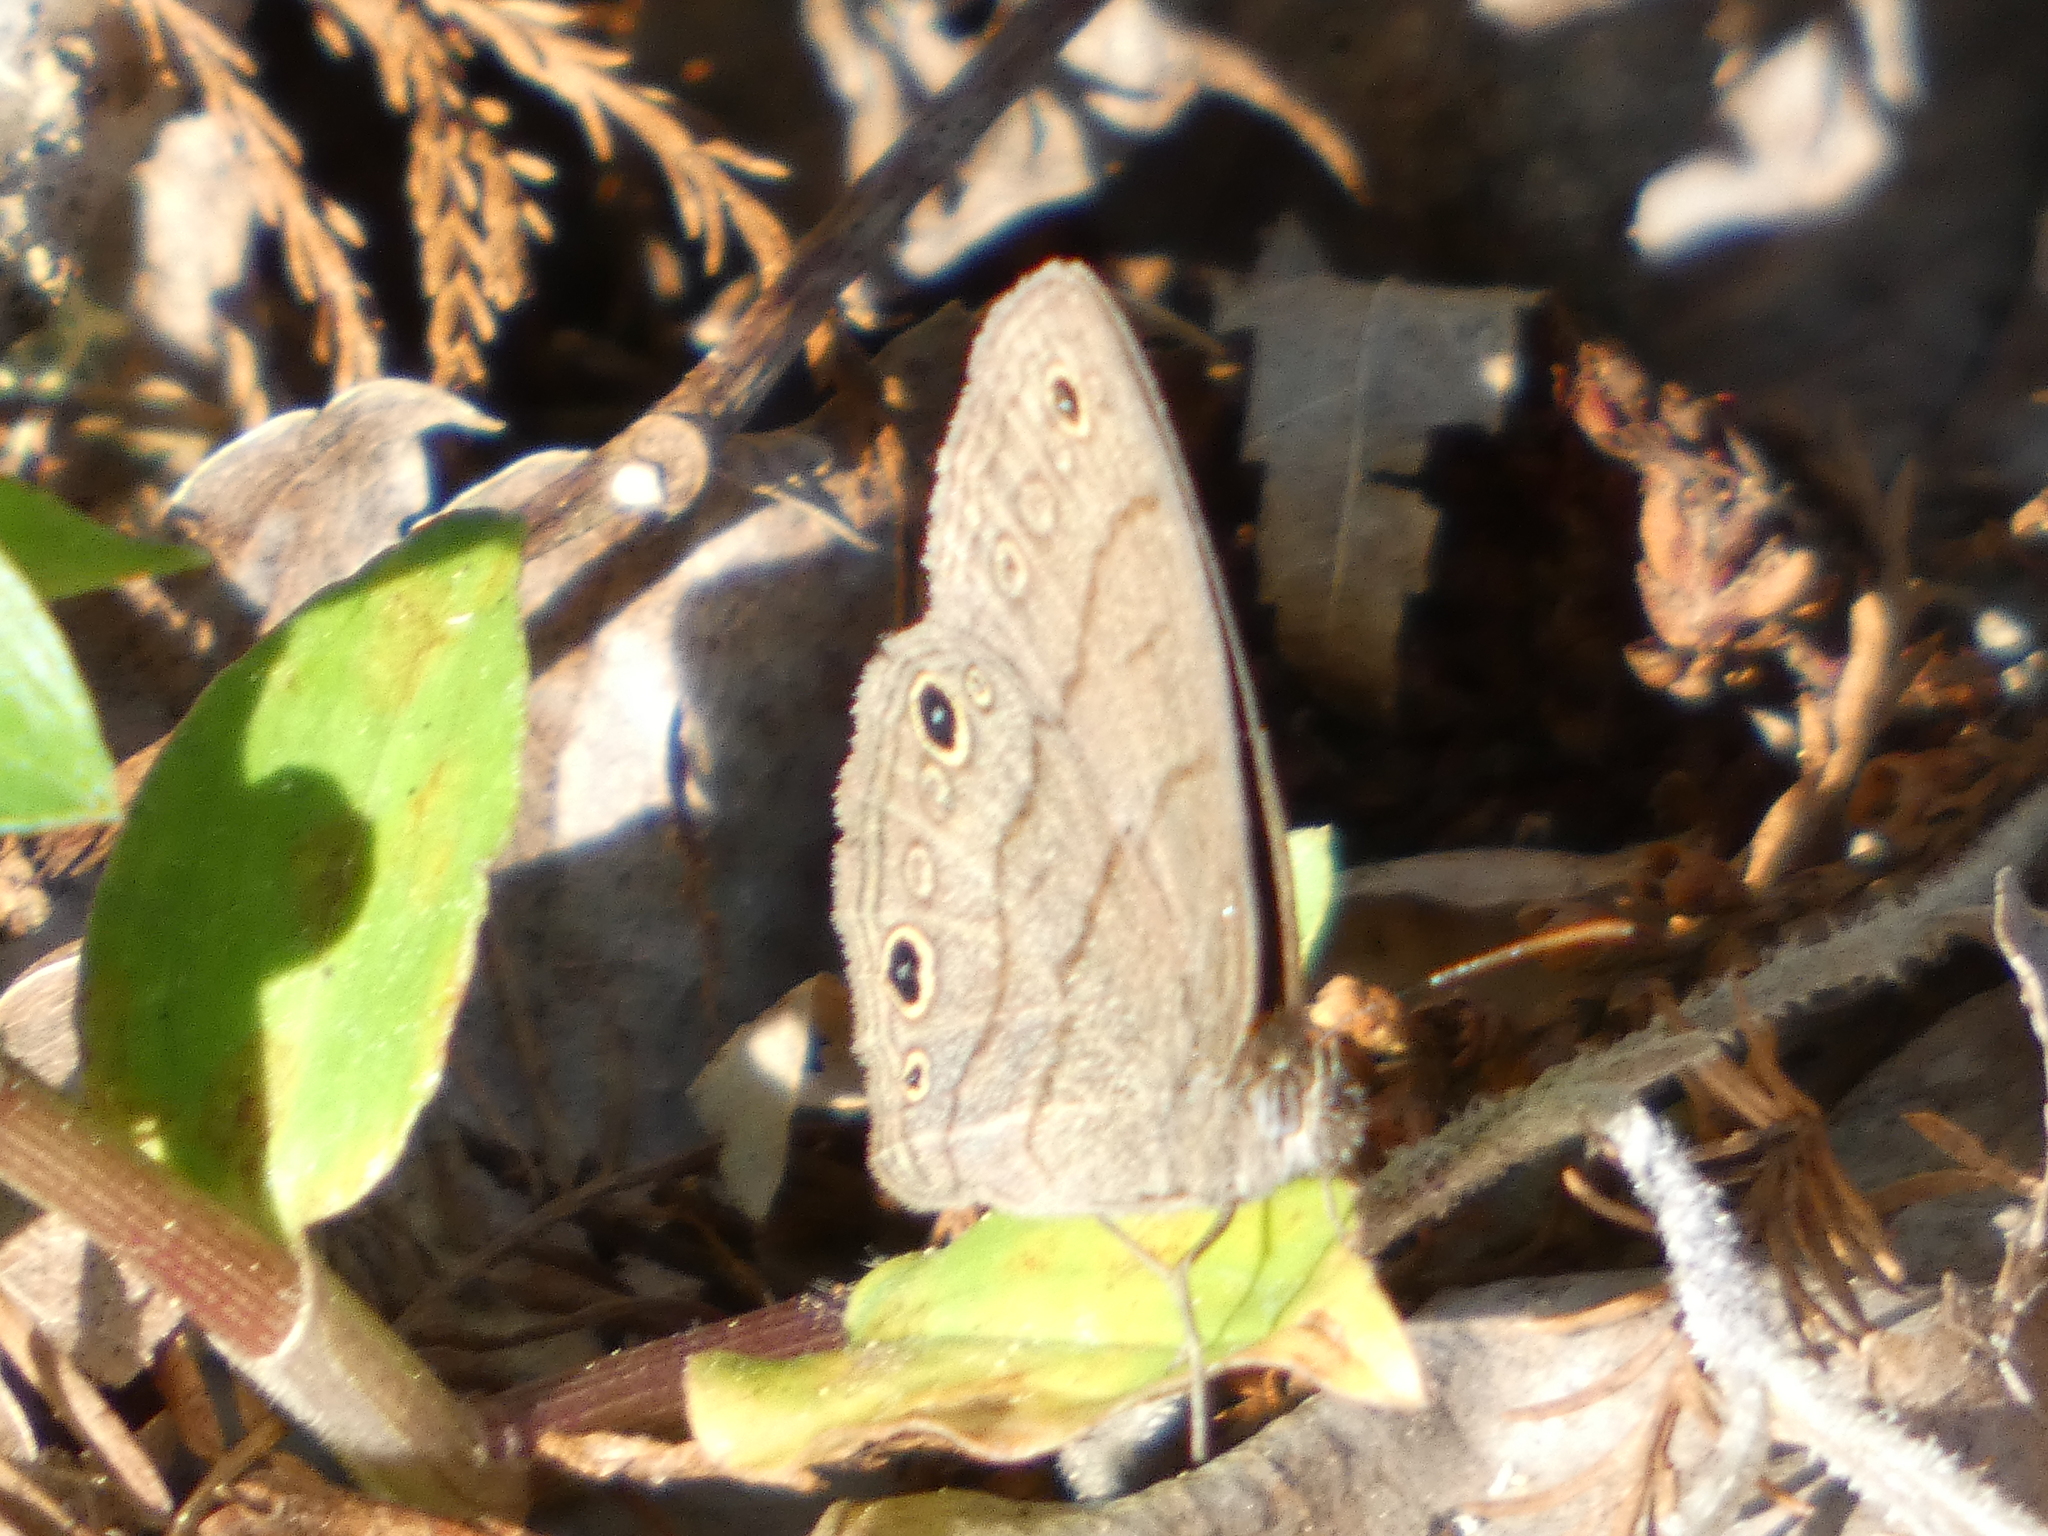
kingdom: Animalia
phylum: Arthropoda
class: Insecta
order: Lepidoptera
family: Nymphalidae
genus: Hermeuptychia
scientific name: Hermeuptychia hermes
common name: Hermes satyr
